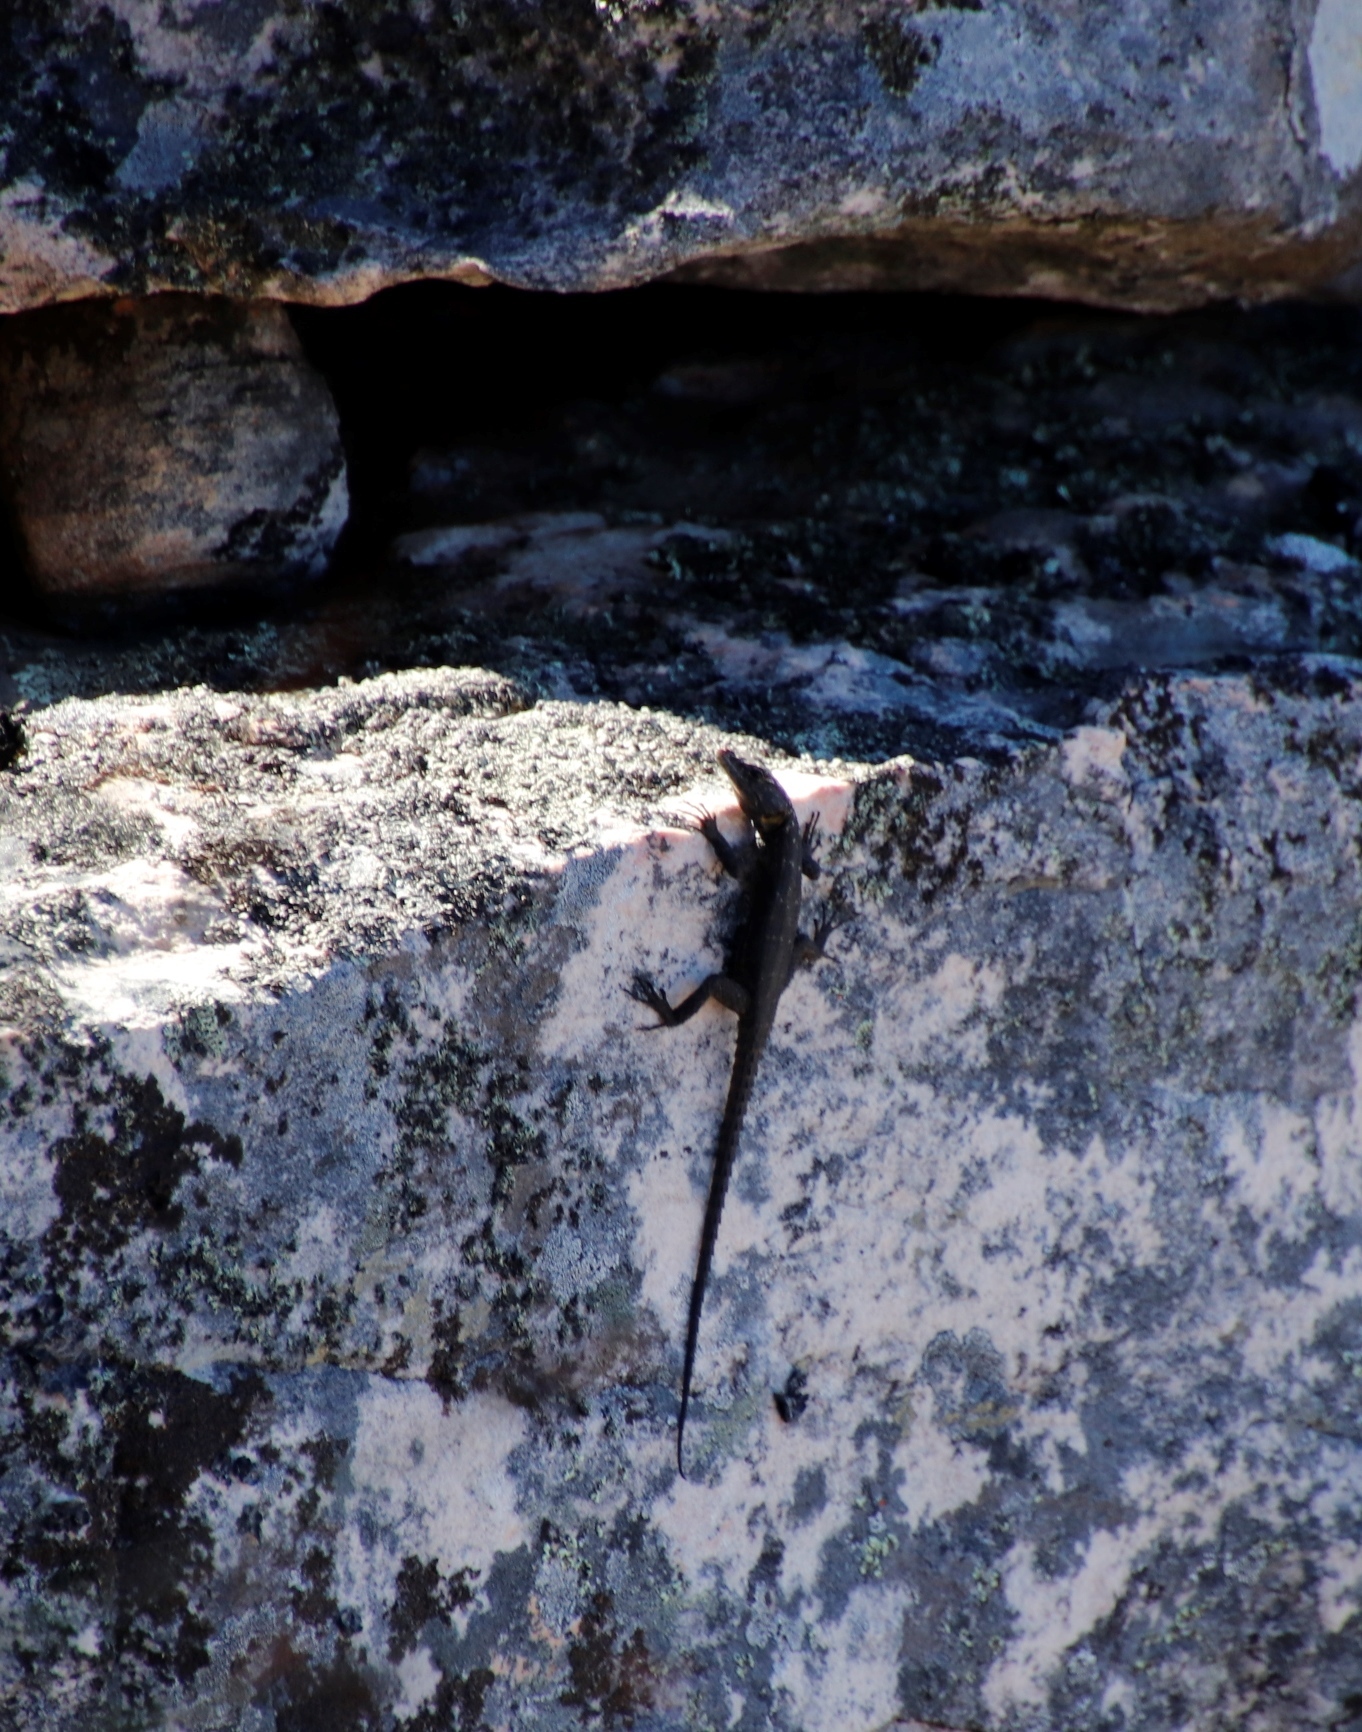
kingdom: Animalia
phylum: Chordata
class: Squamata
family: Cordylidae
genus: Hemicordylus
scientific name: Hemicordylus capensis
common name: Graceful crag lizard
